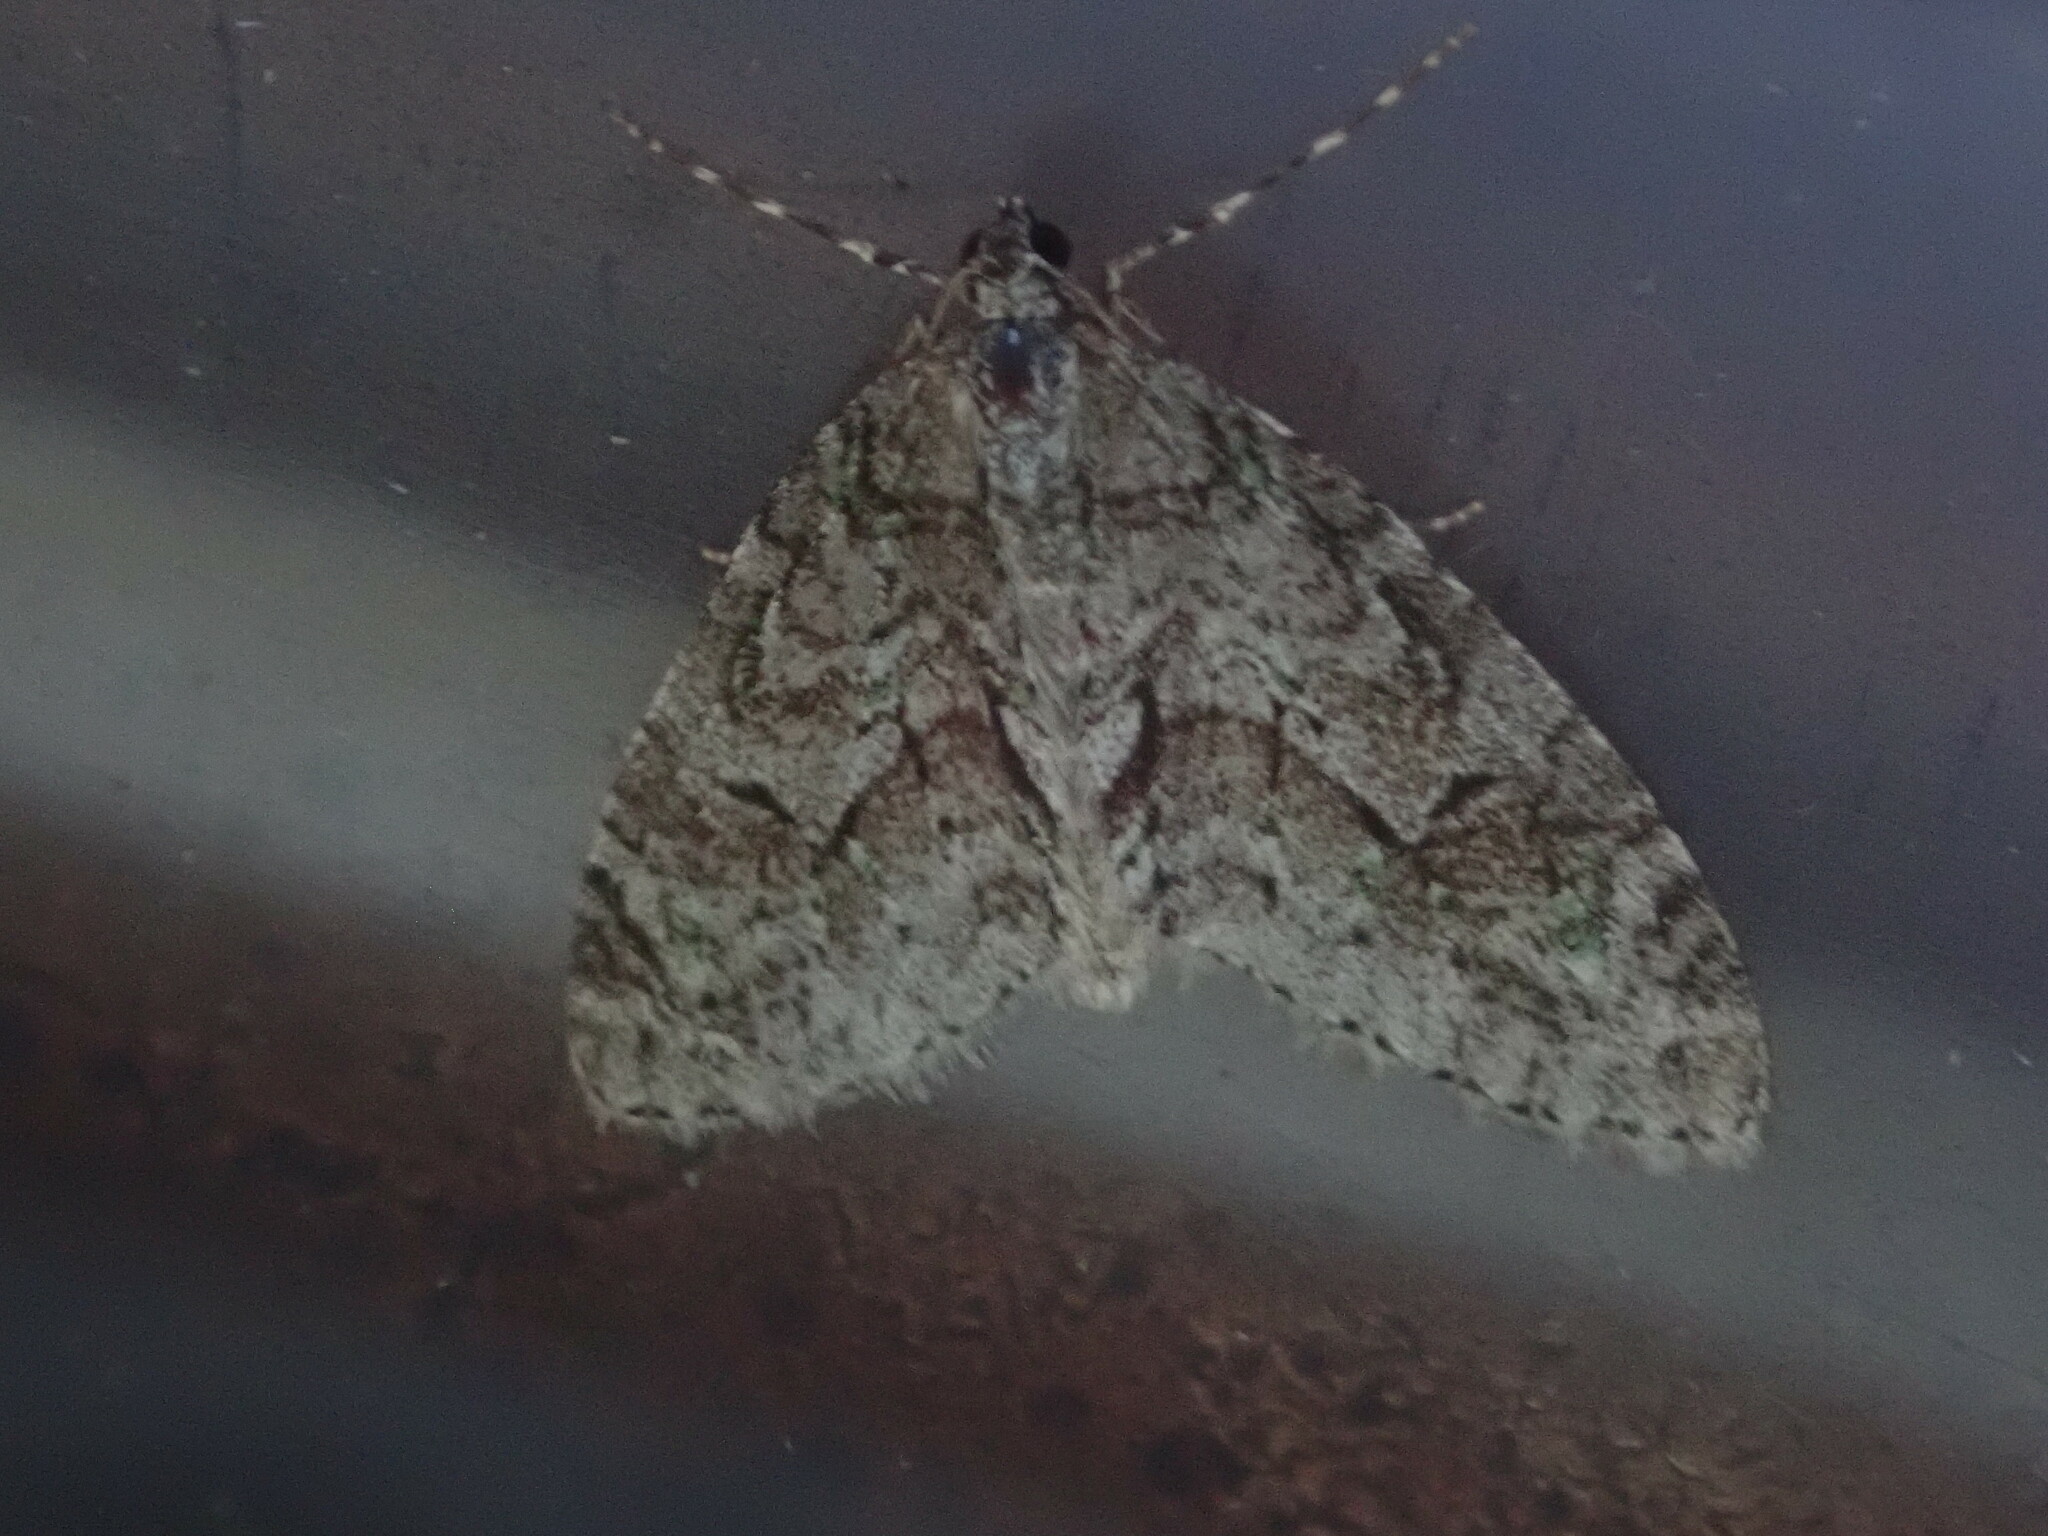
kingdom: Animalia
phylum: Arthropoda
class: Insecta
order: Lepidoptera
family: Geometridae
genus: Cladara
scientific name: Cladara limitaria
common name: Mottled gray carpet
